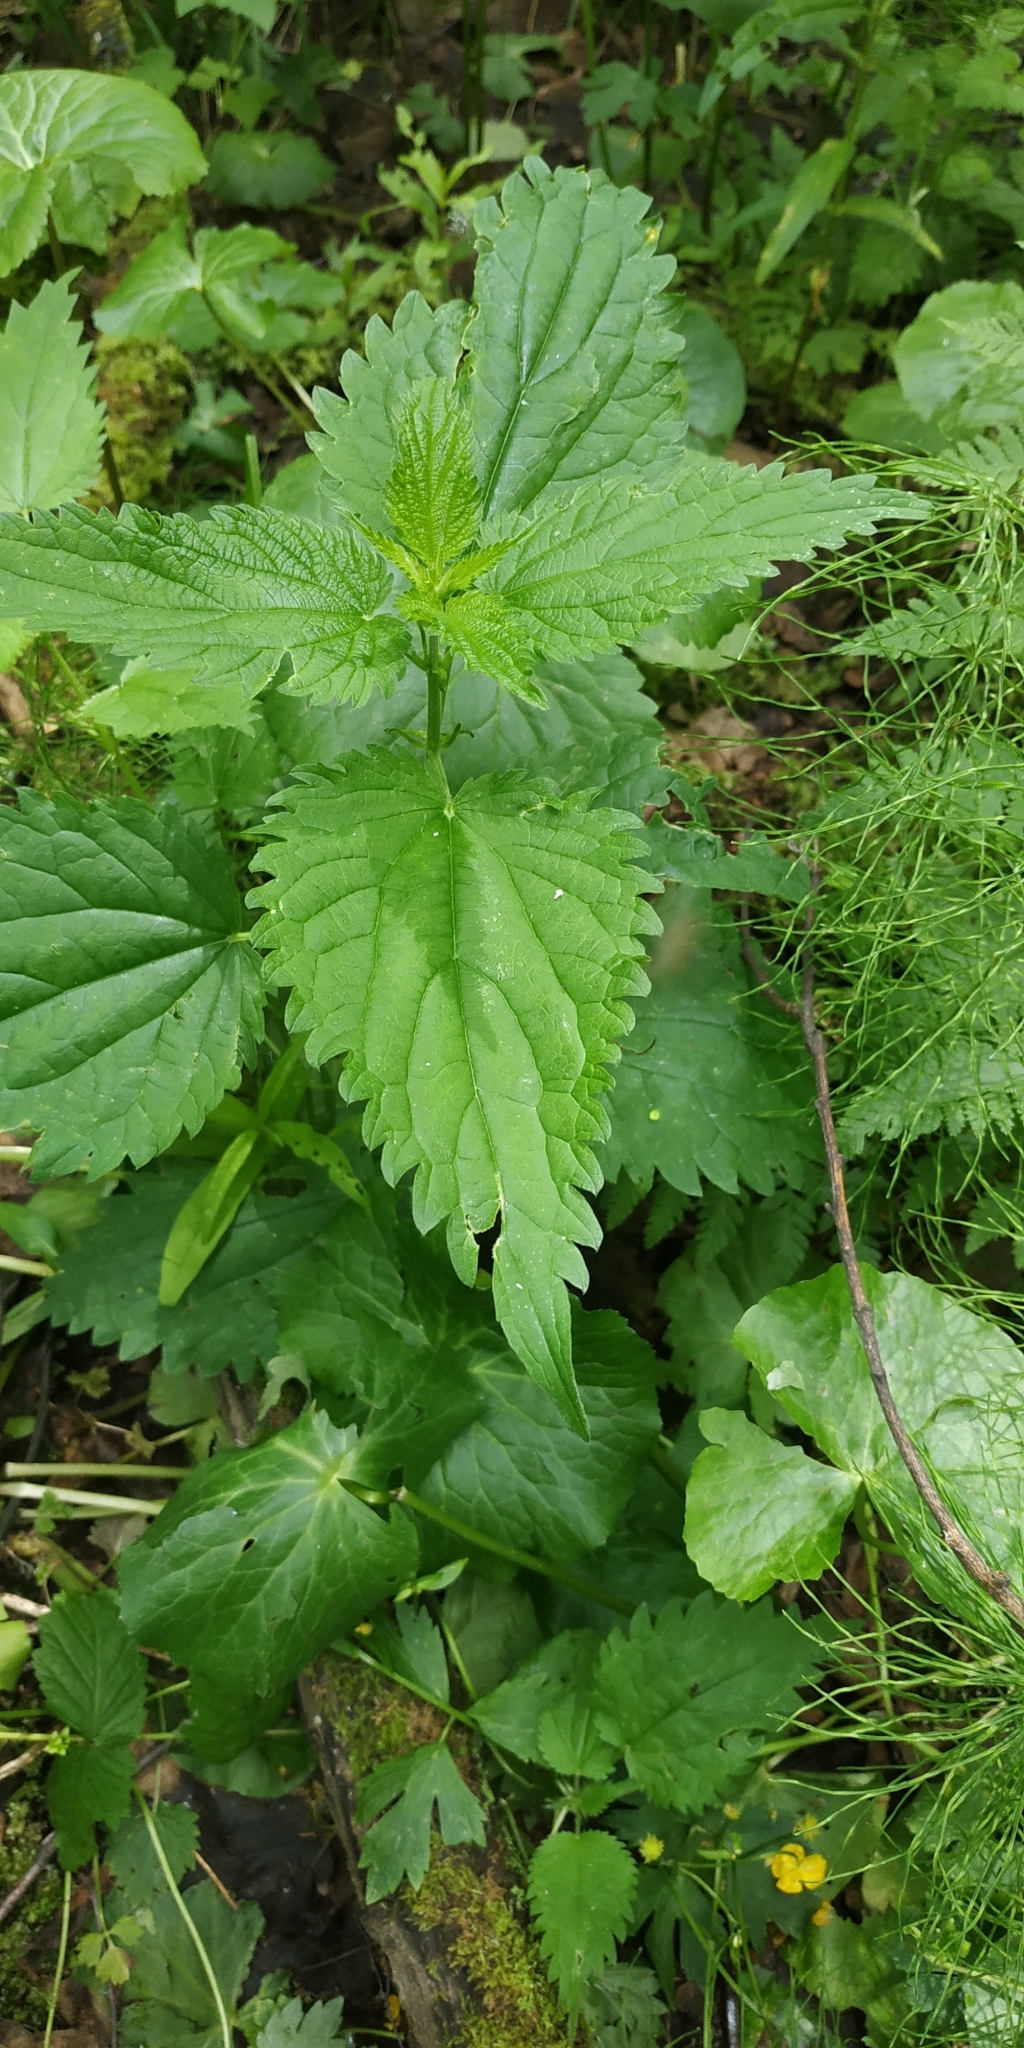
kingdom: Plantae
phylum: Tracheophyta
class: Magnoliopsida
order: Rosales
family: Urticaceae
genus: Urtica
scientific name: Urtica dioica
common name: Common nettle
